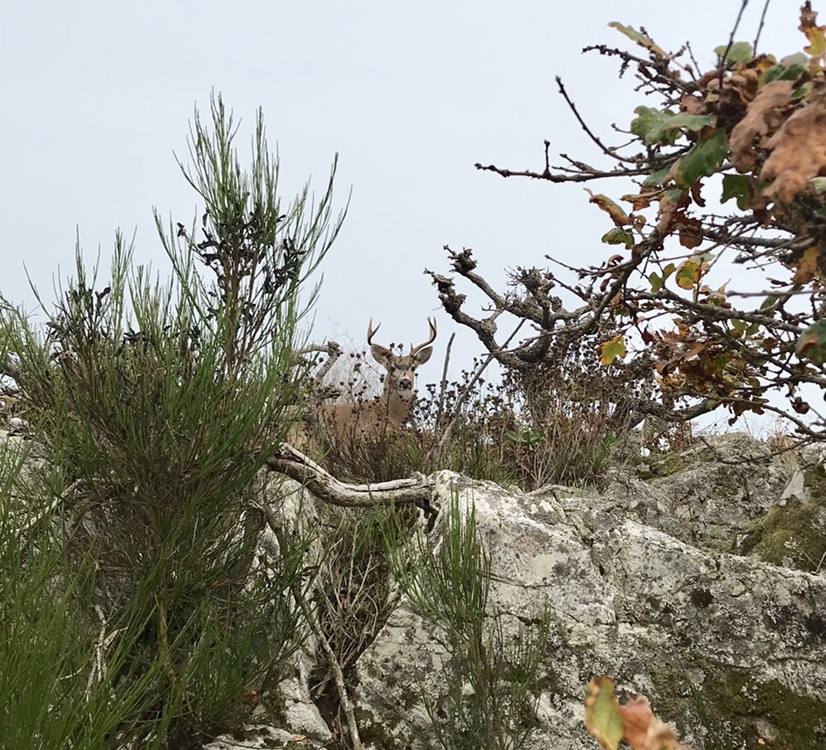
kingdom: Animalia
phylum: Chordata
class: Mammalia
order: Artiodactyla
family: Cervidae
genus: Odocoileus
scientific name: Odocoileus hemionus
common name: Mule deer
